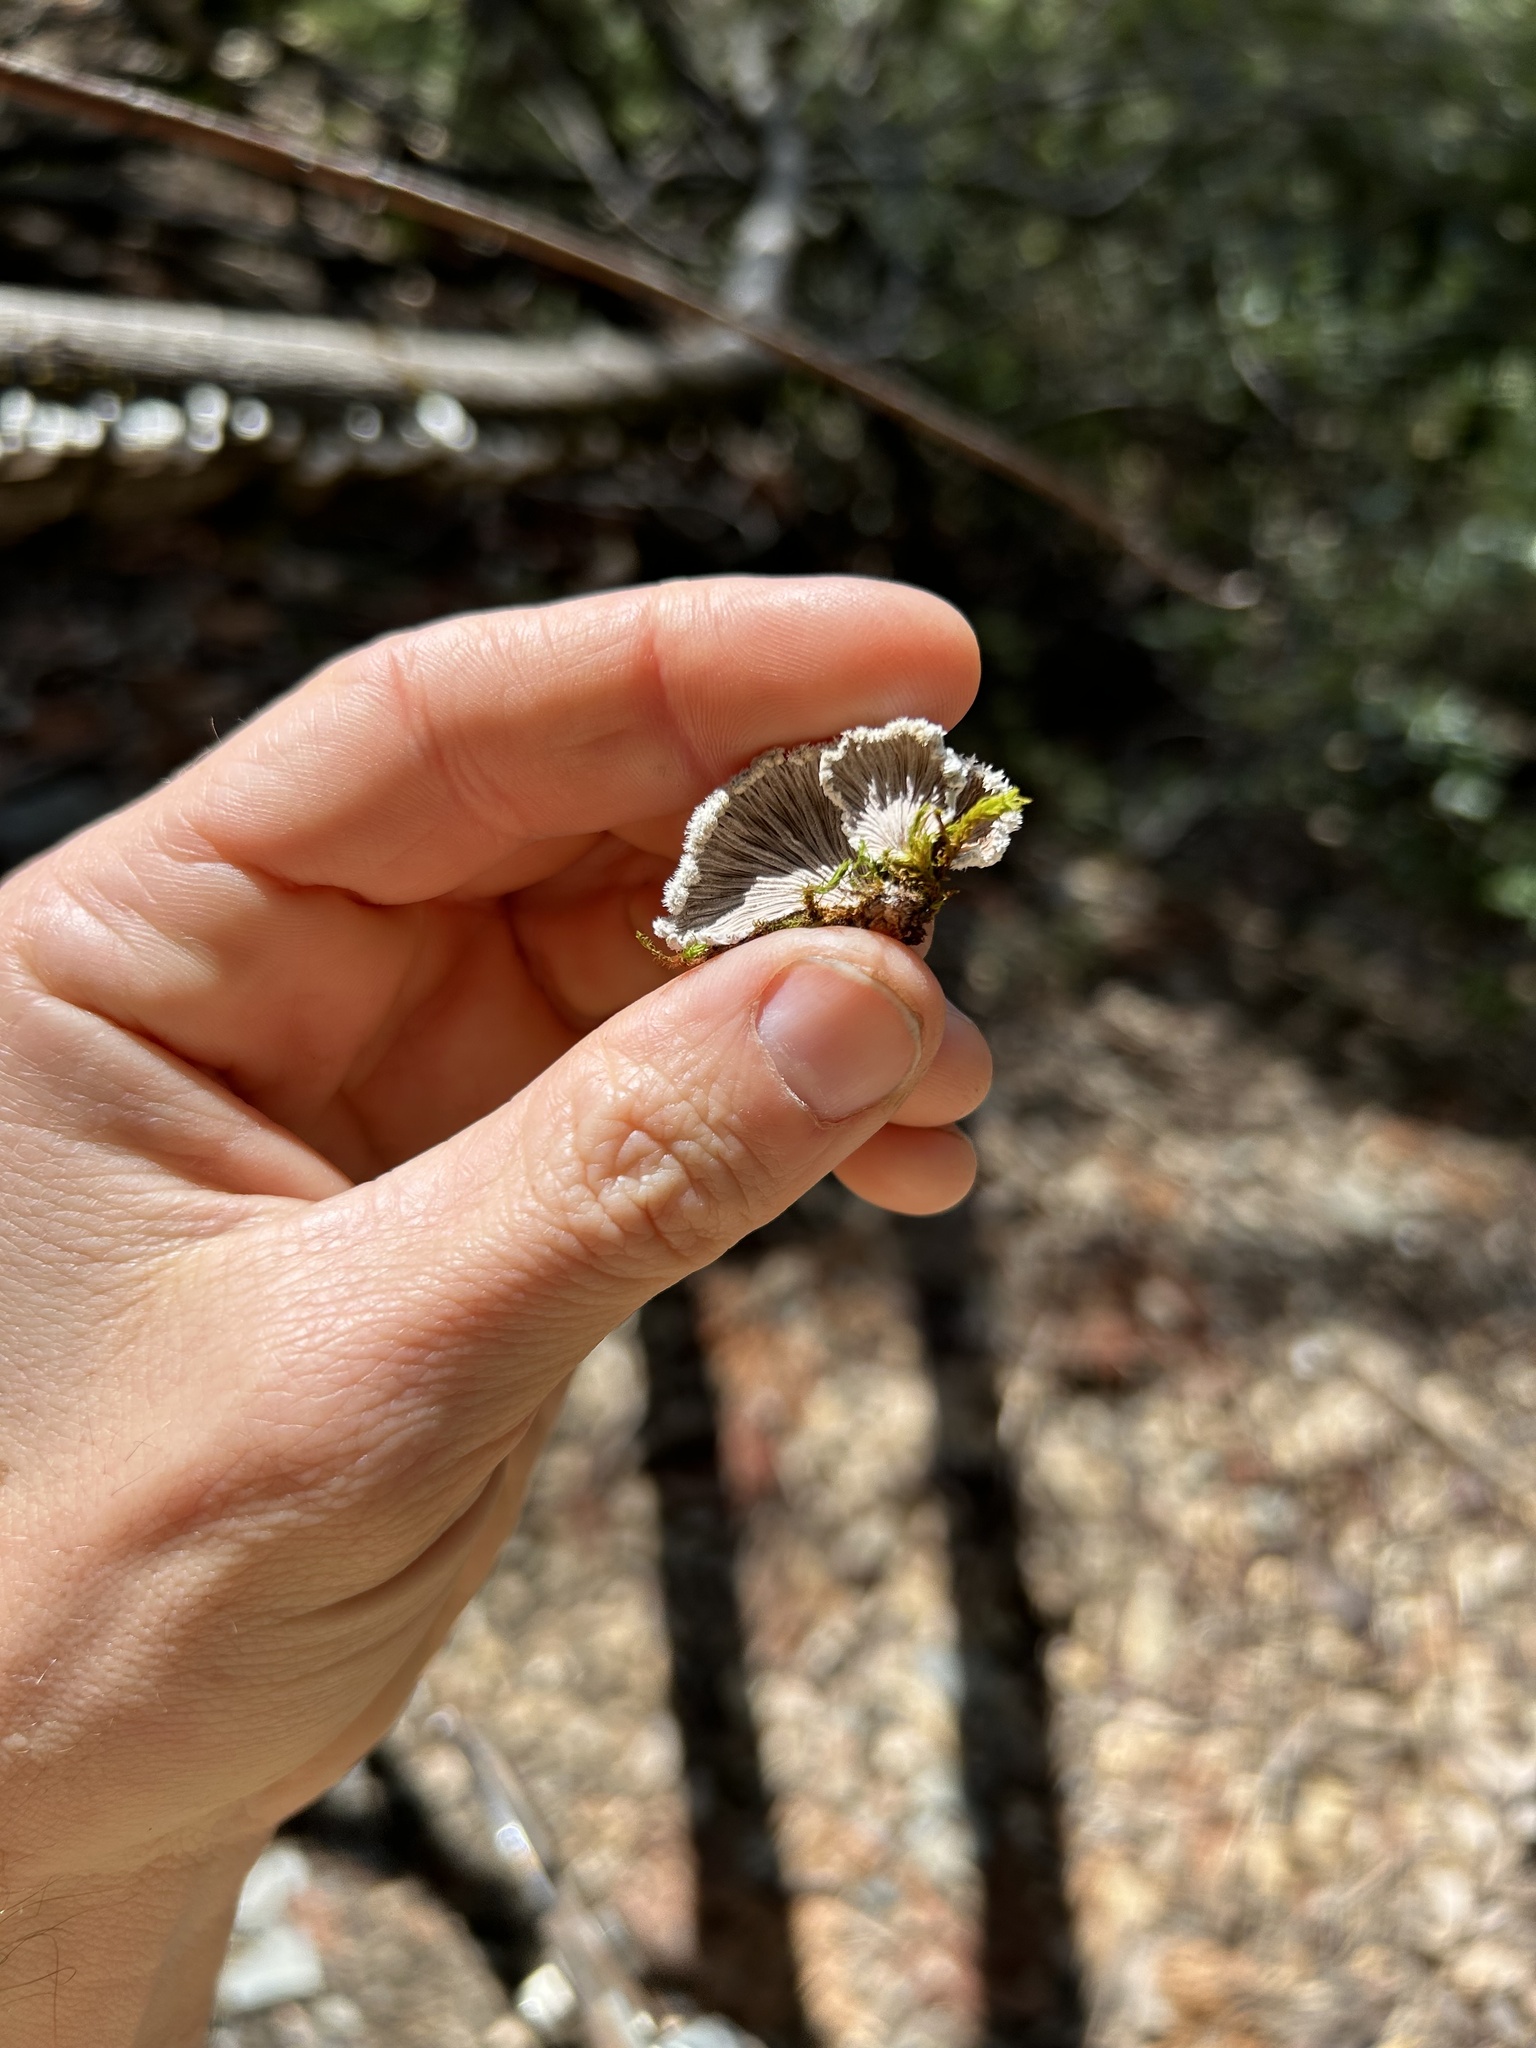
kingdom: Fungi
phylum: Basidiomycota
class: Agaricomycetes
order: Agaricales
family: Schizophyllaceae
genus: Schizophyllum
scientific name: Schizophyllum commune
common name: Common porecrust
